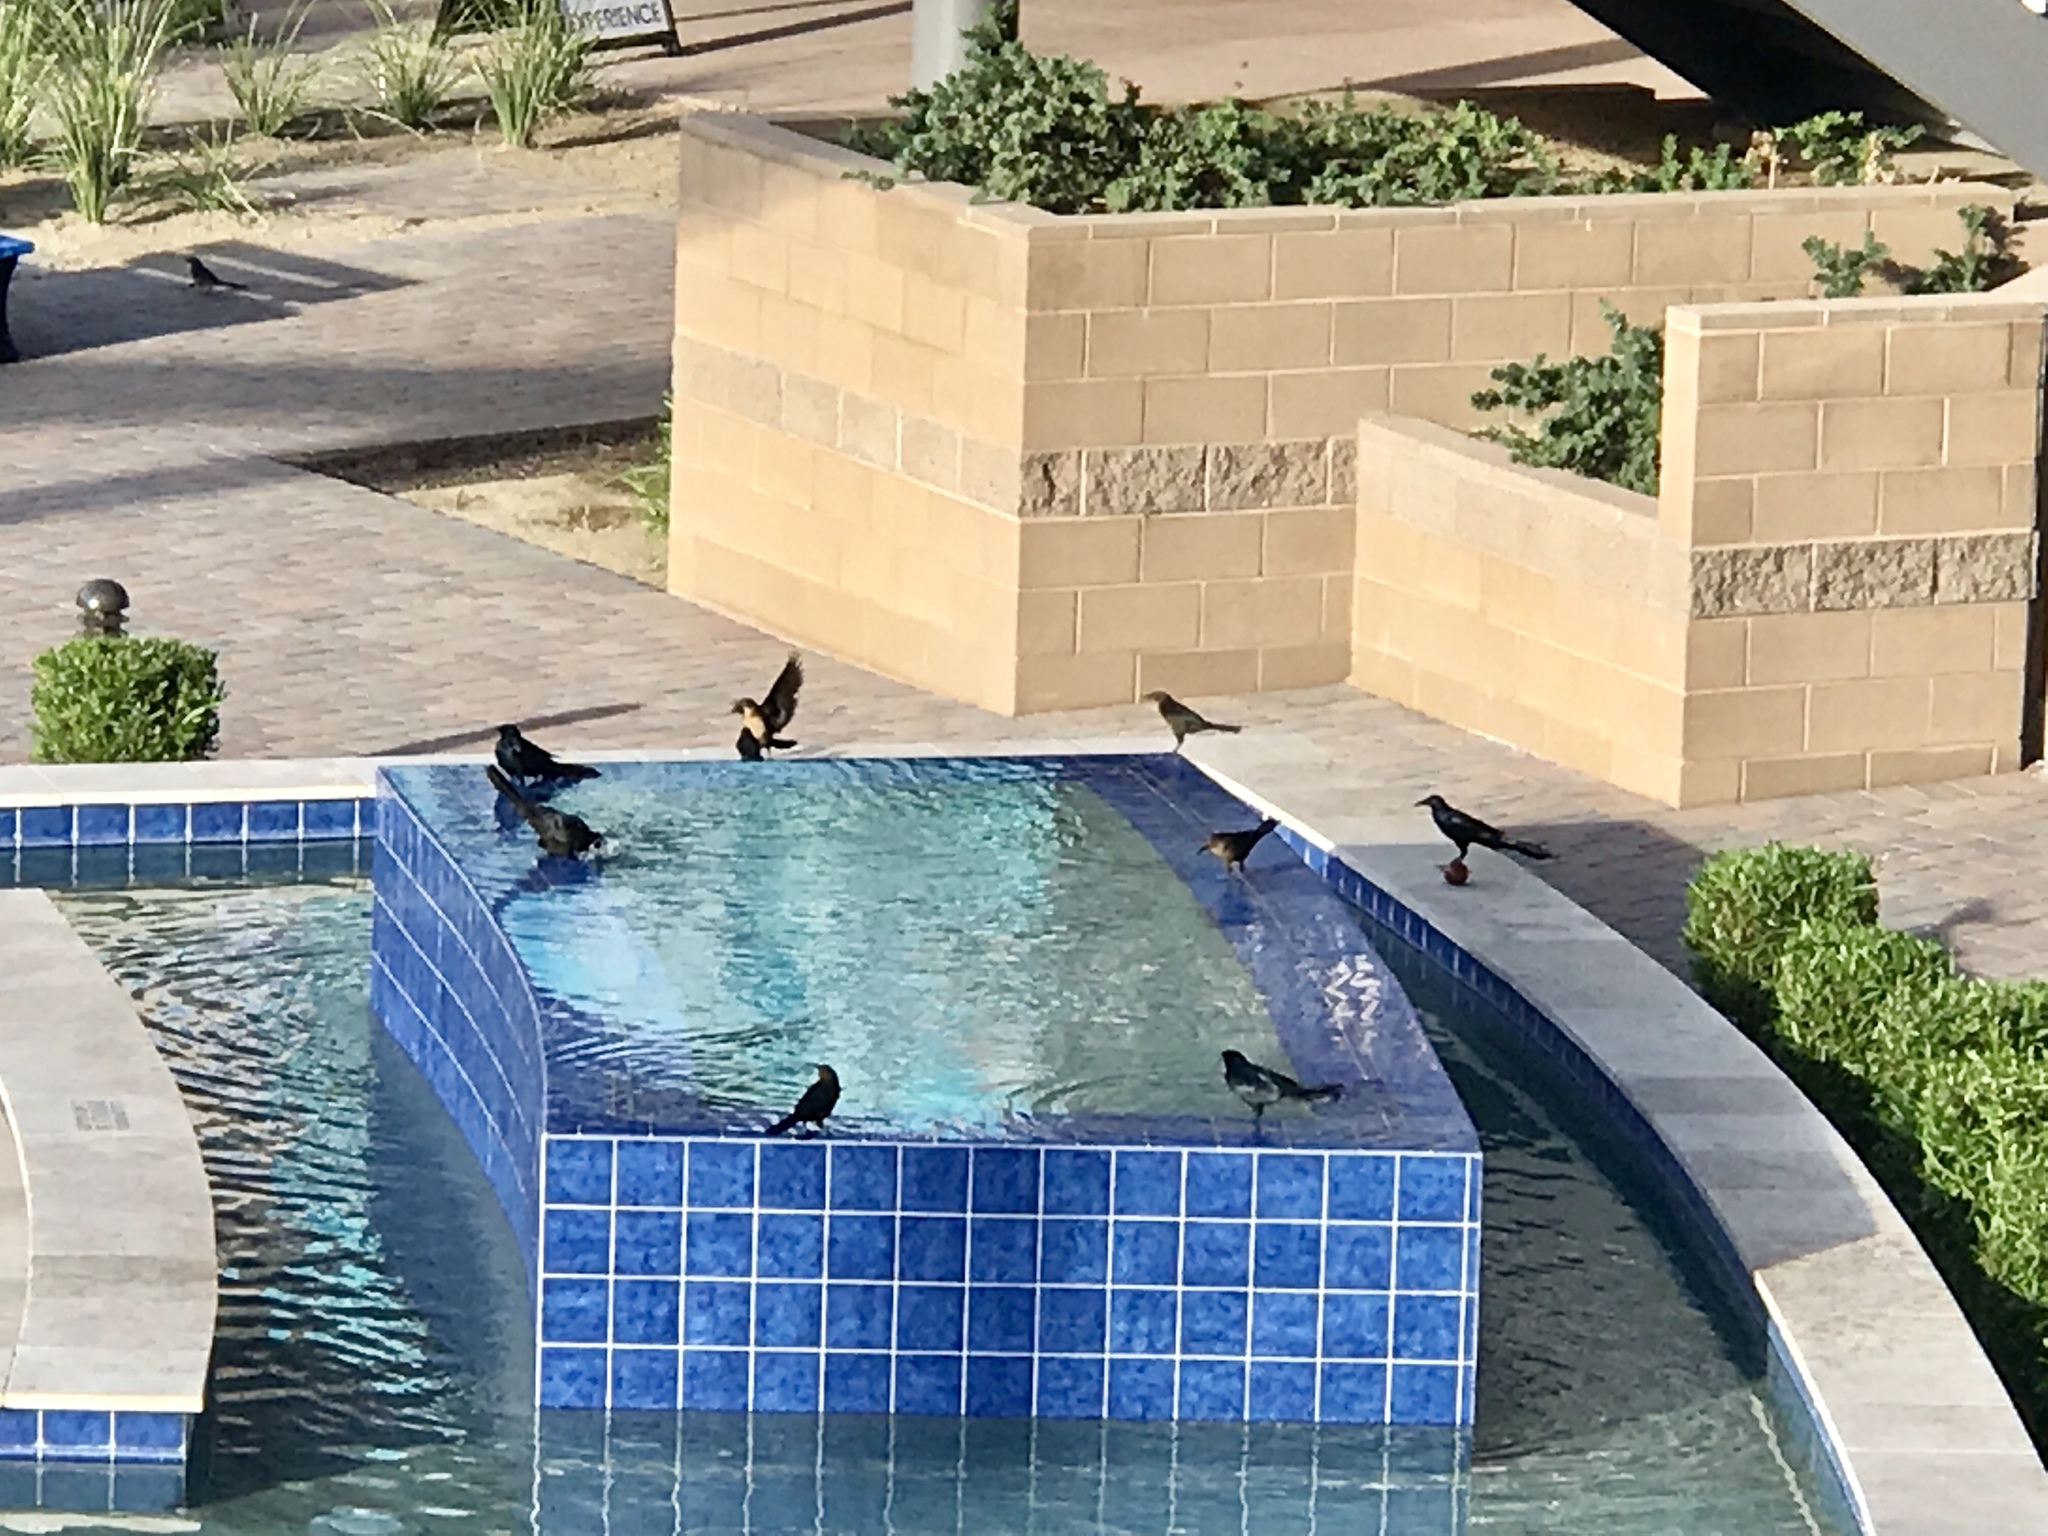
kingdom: Animalia
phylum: Chordata
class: Aves
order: Passeriformes
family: Icteridae
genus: Quiscalus
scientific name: Quiscalus mexicanus
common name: Great-tailed grackle
